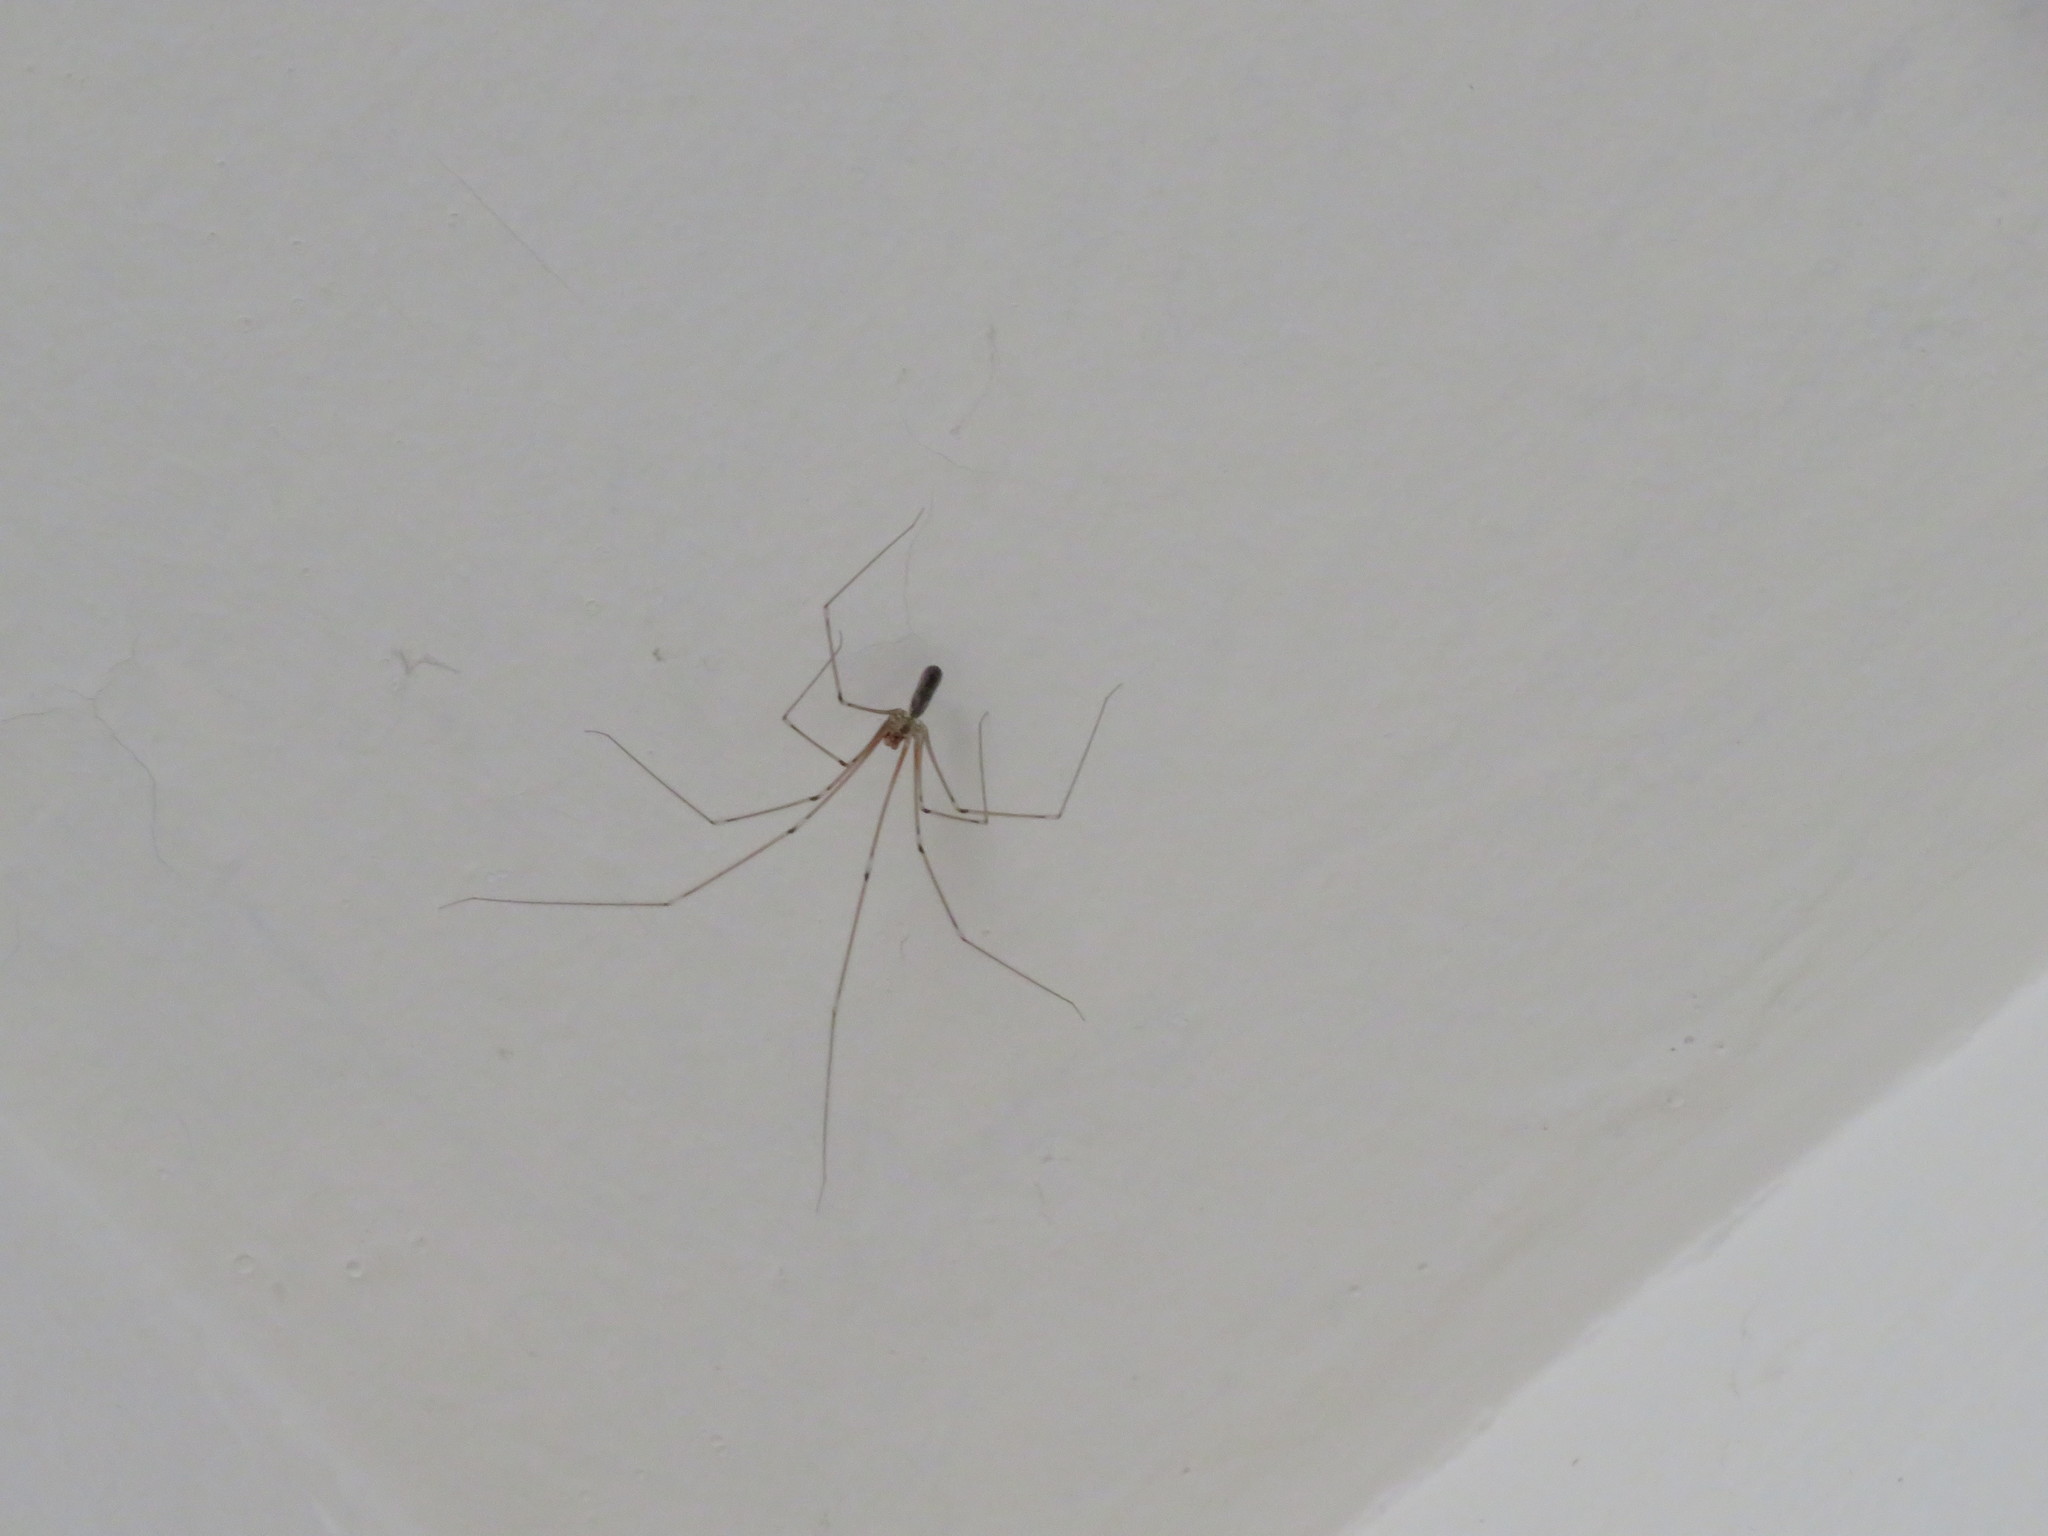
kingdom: Animalia
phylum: Arthropoda
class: Arachnida
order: Araneae
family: Pholcidae
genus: Pholcus
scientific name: Pholcus phalangioides
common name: Longbodied cellar spider
